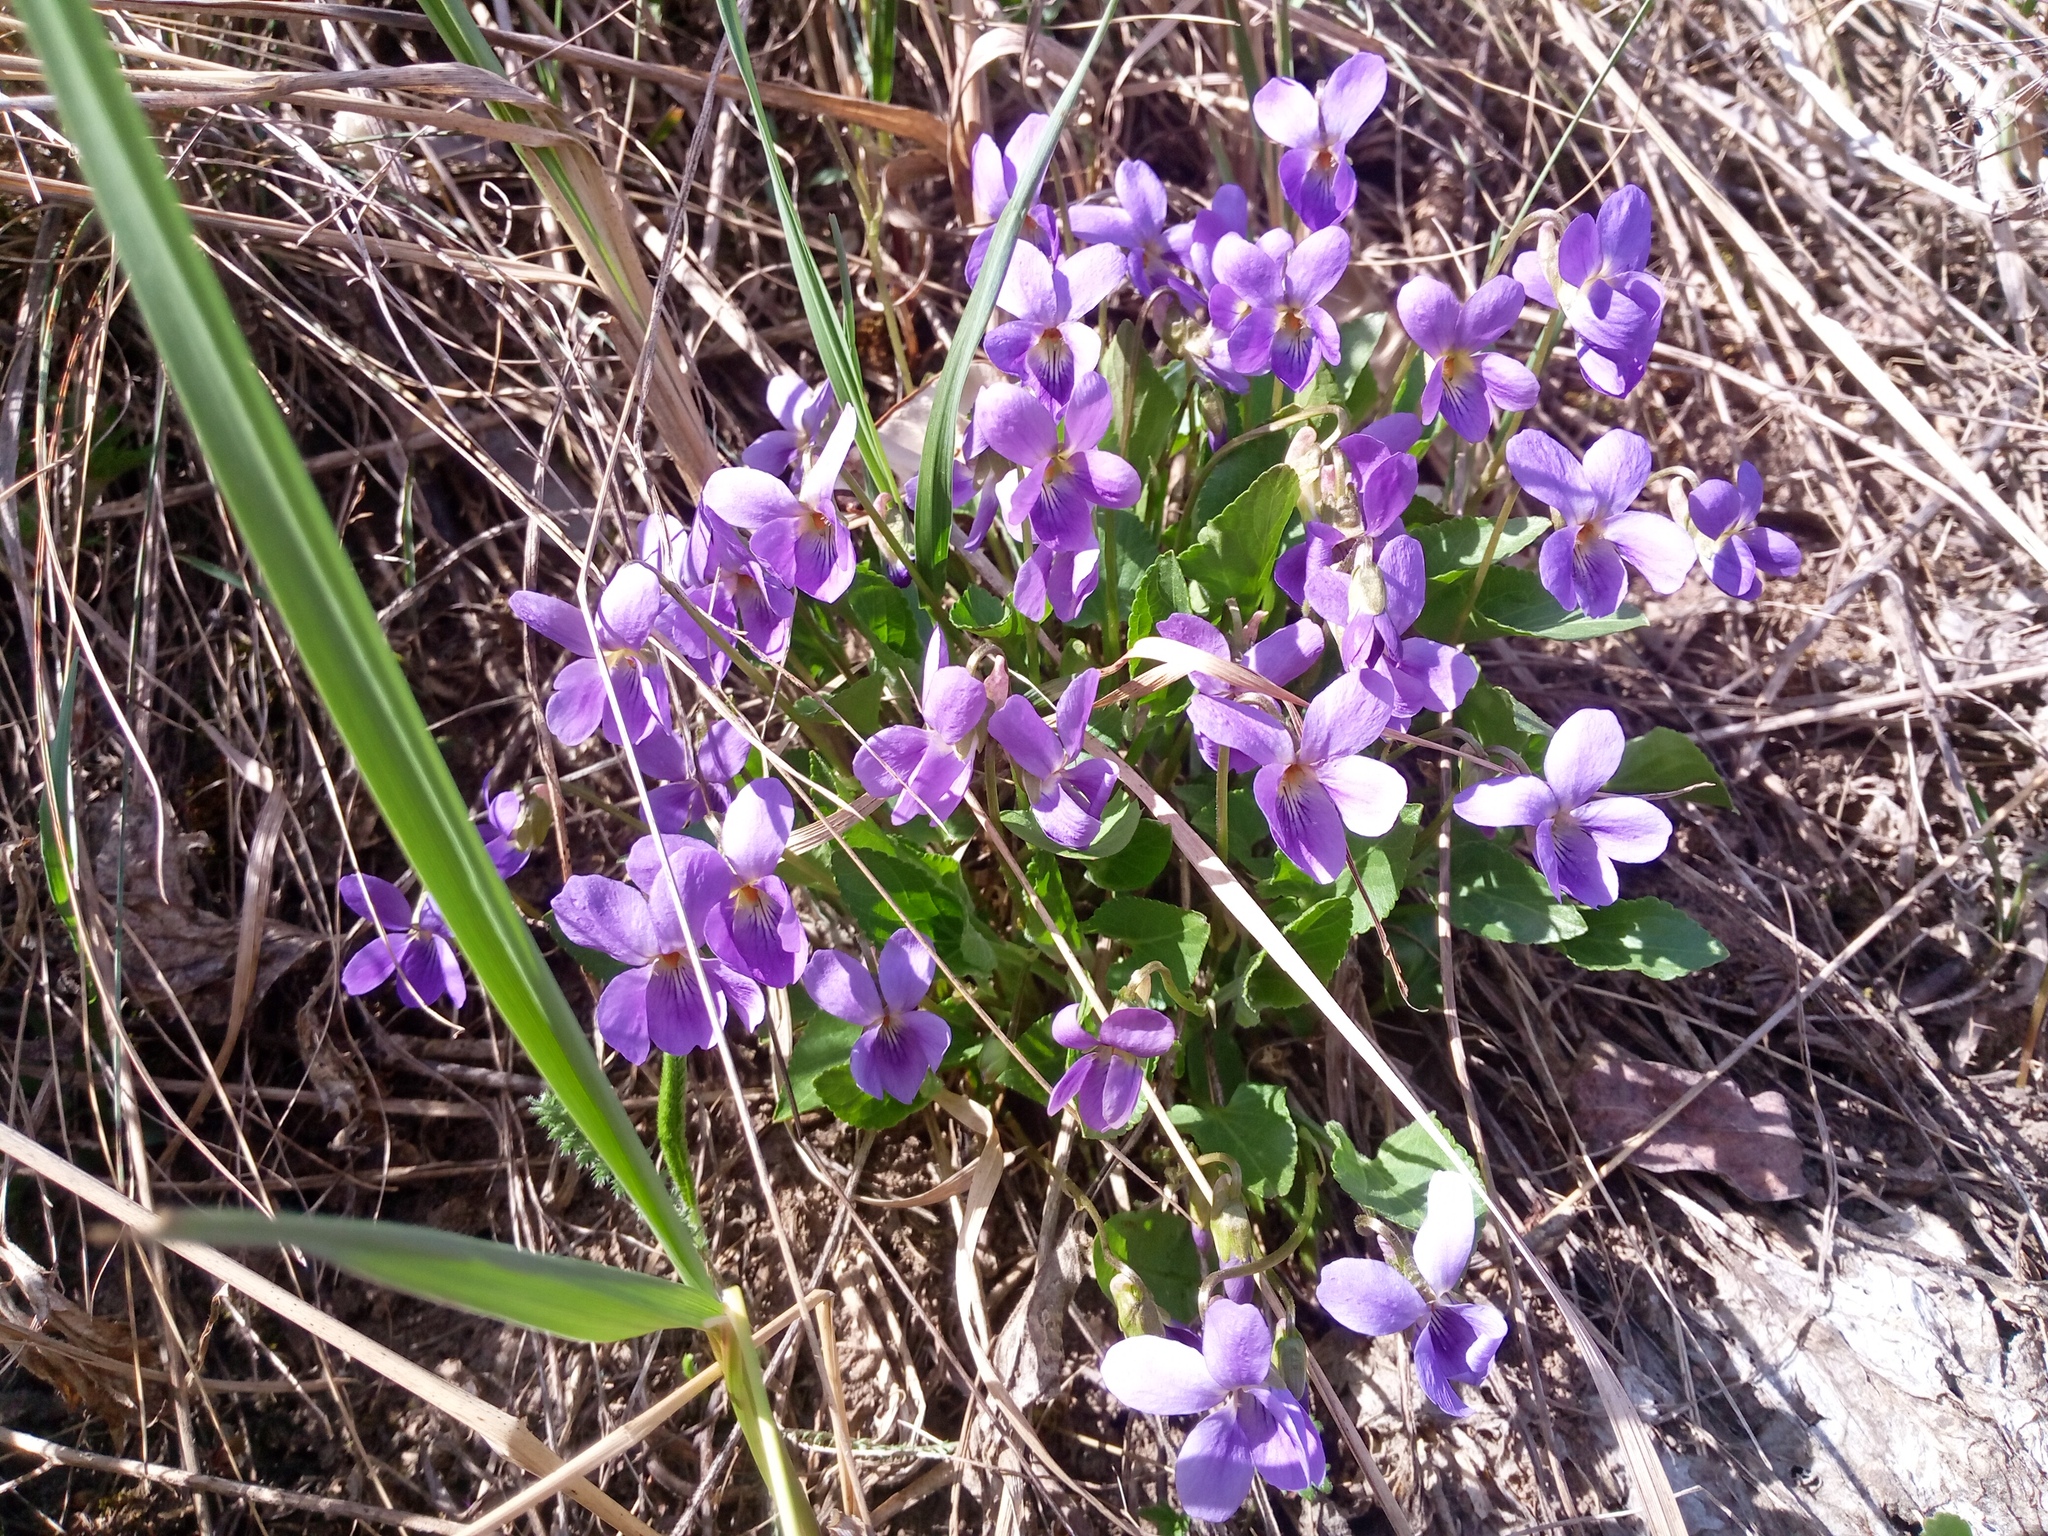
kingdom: Plantae
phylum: Tracheophyta
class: Magnoliopsida
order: Malpighiales
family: Violaceae
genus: Viola
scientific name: Viola hirta
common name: Hairy violet
